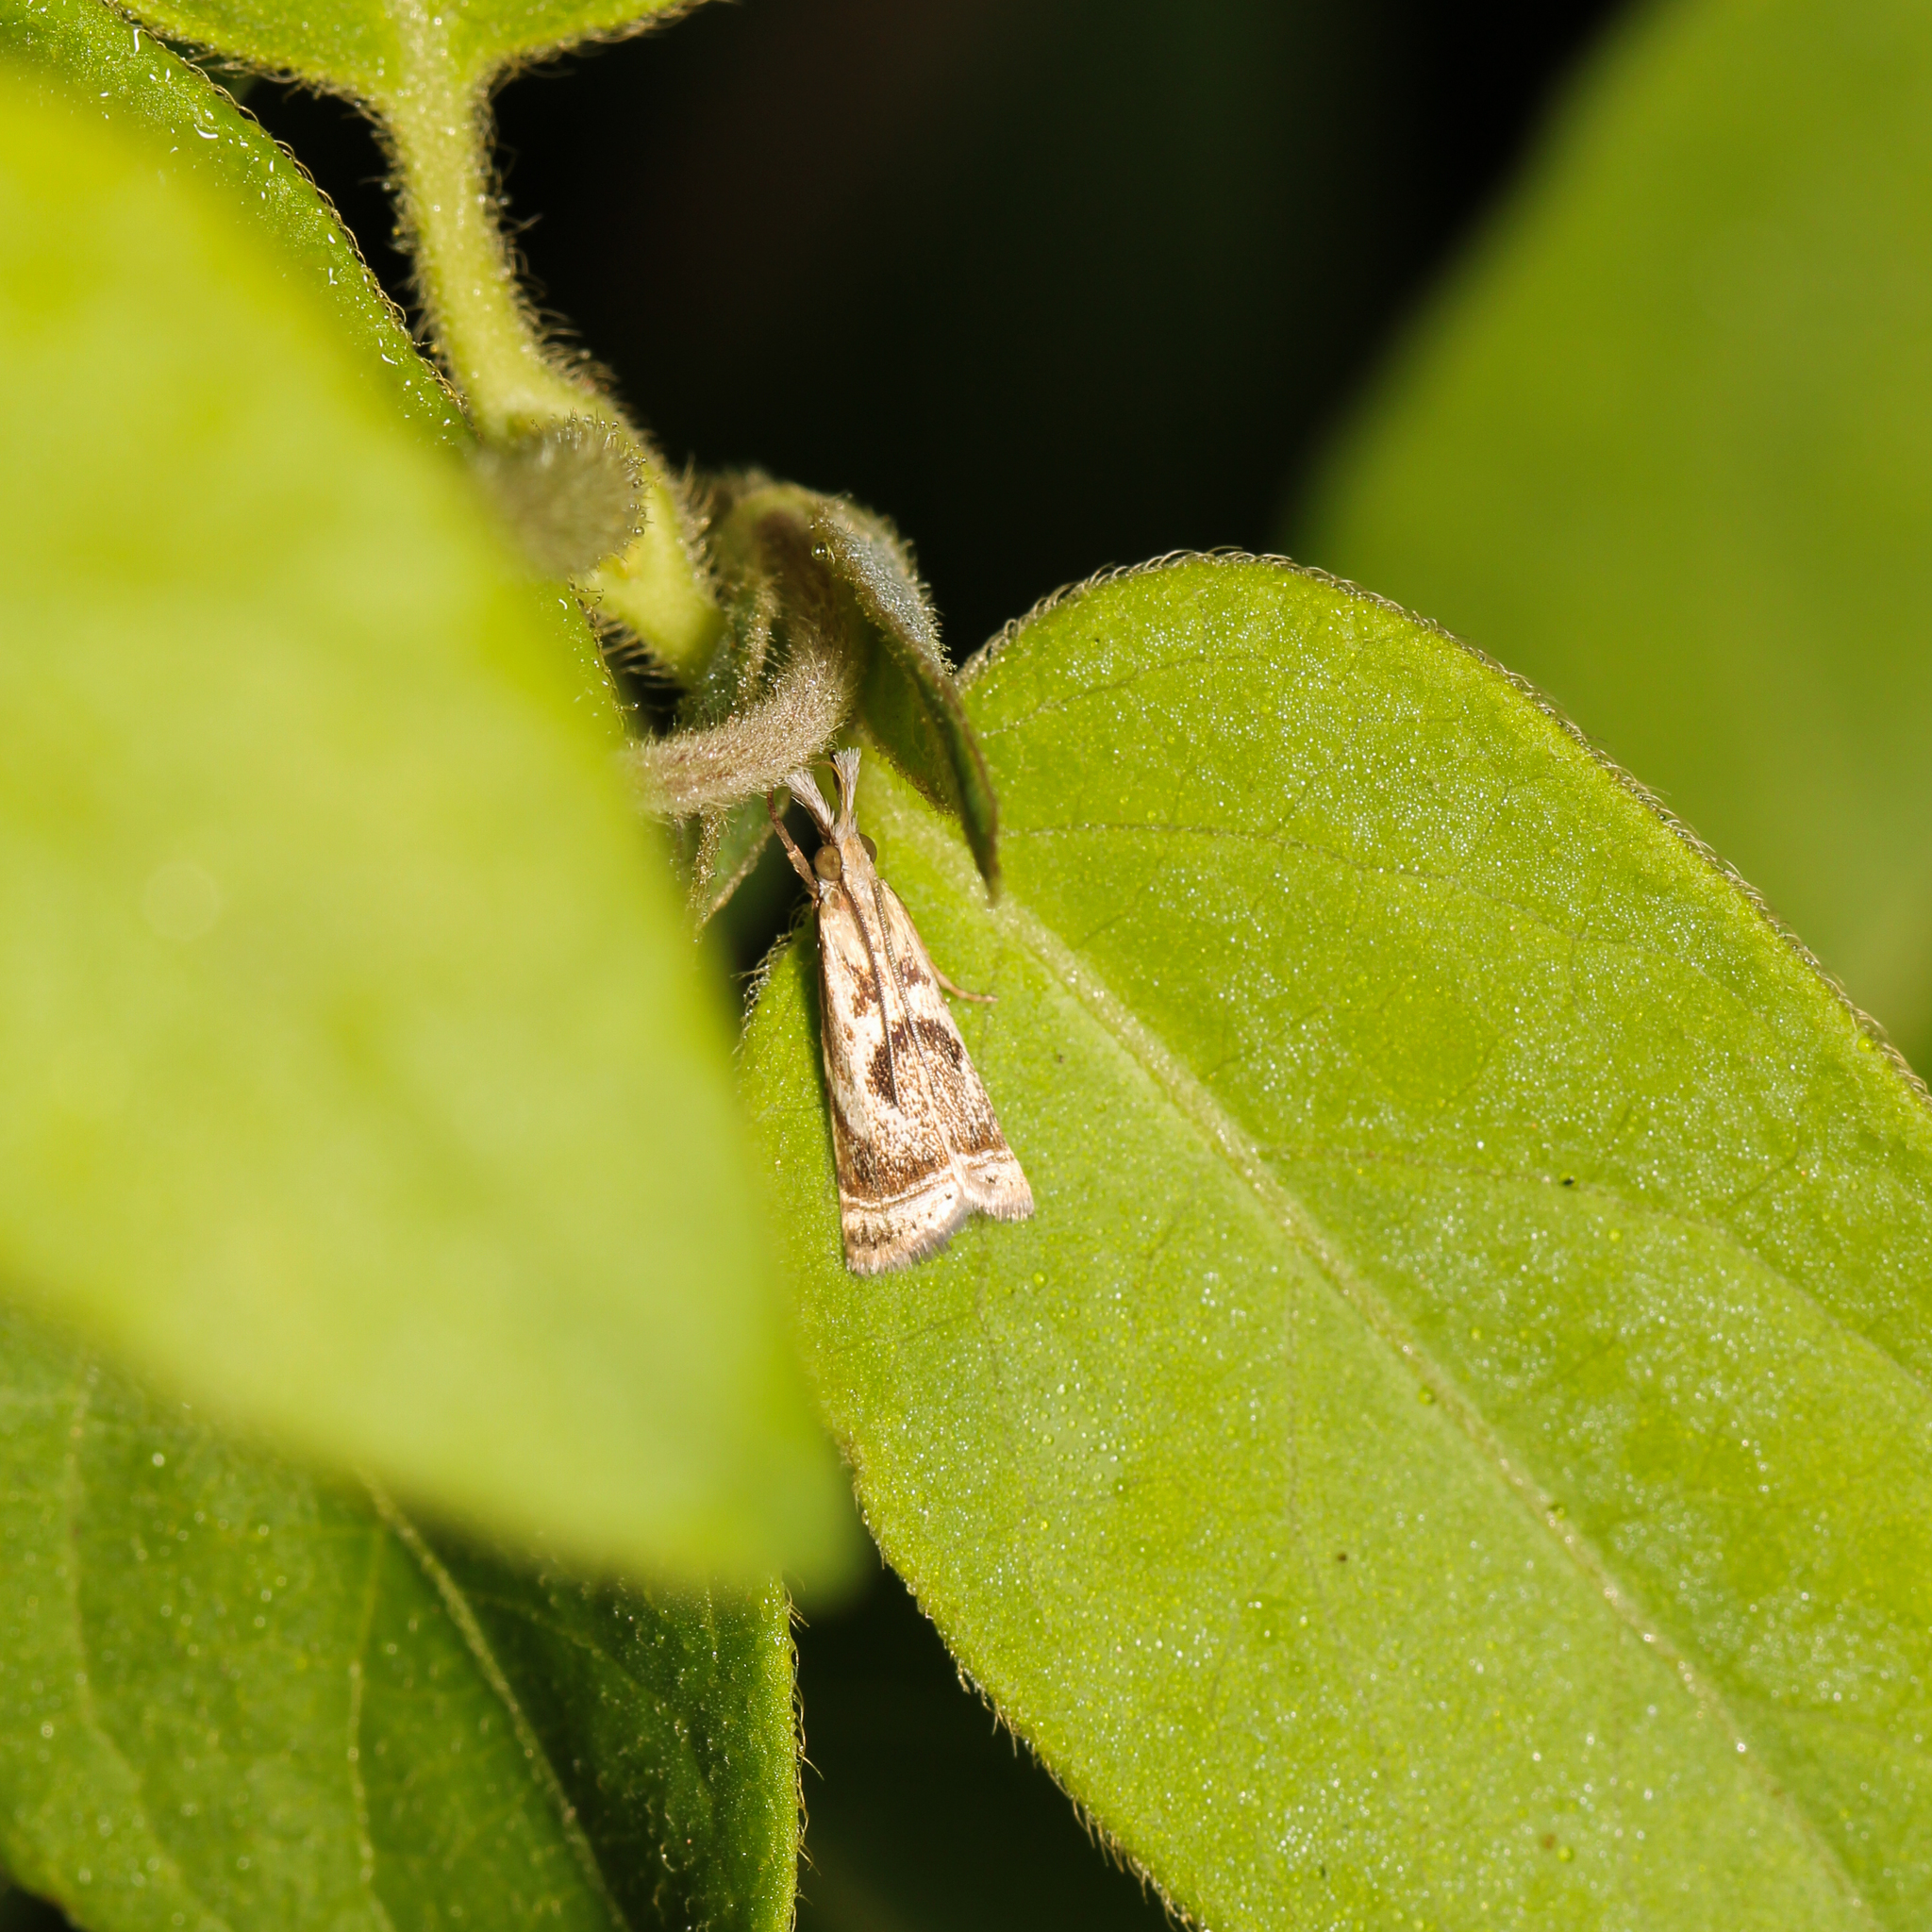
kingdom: Animalia
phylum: Arthropoda
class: Insecta
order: Lepidoptera
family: Crambidae
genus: Microcrambus
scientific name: Microcrambus elegans
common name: Elegant grass-veneer
